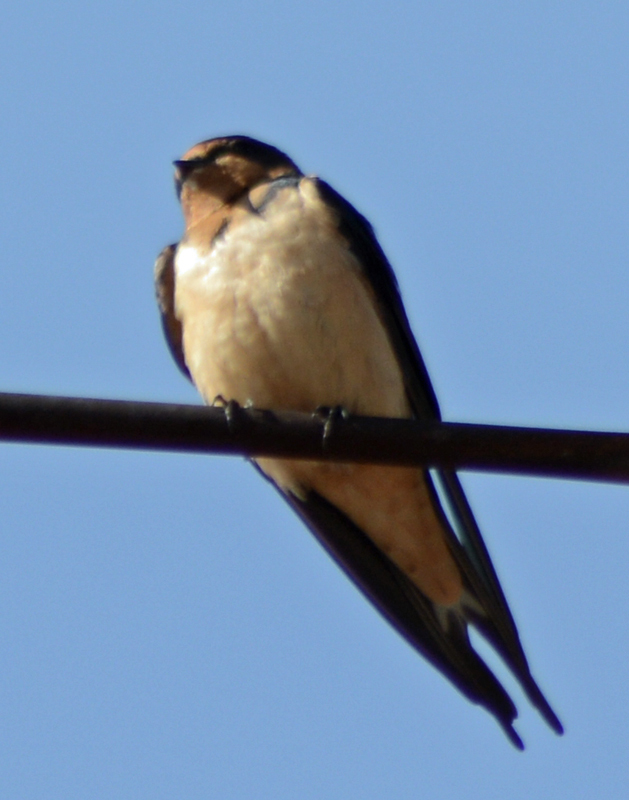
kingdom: Animalia
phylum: Chordata
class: Aves
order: Passeriformes
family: Hirundinidae
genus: Hirundo
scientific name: Hirundo rustica
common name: Barn swallow
